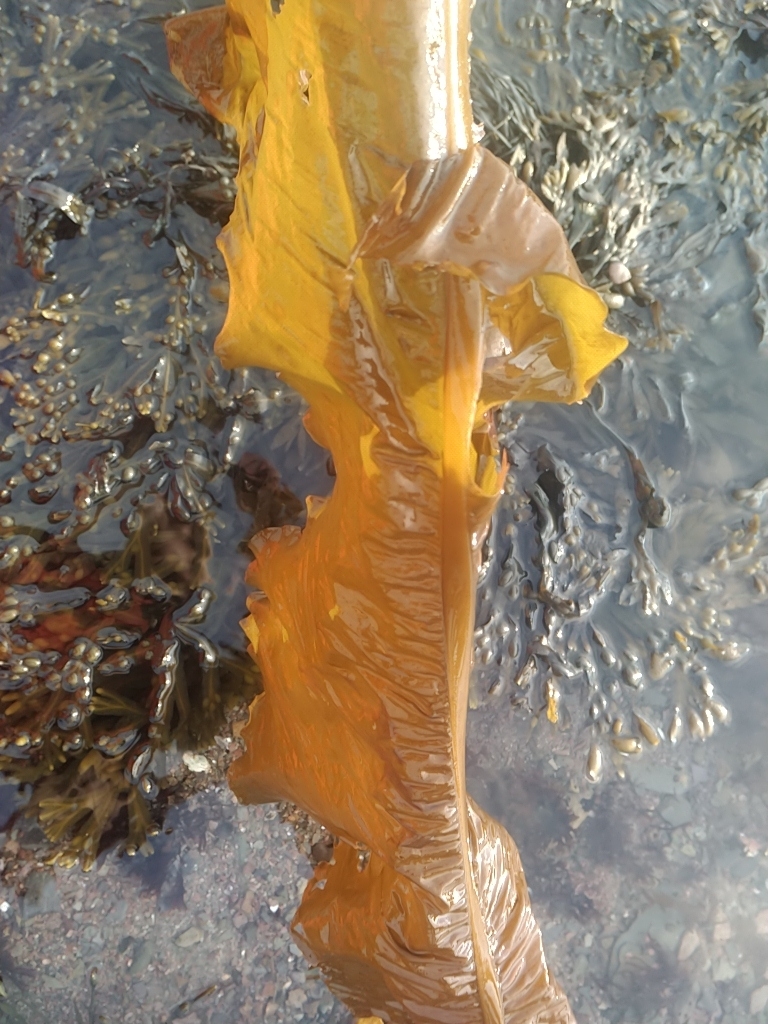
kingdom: Chromista
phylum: Ochrophyta
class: Phaeophyceae
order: Laminariales
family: Alariaceae
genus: Alaria
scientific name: Alaria esculenta
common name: Dabberlocks
